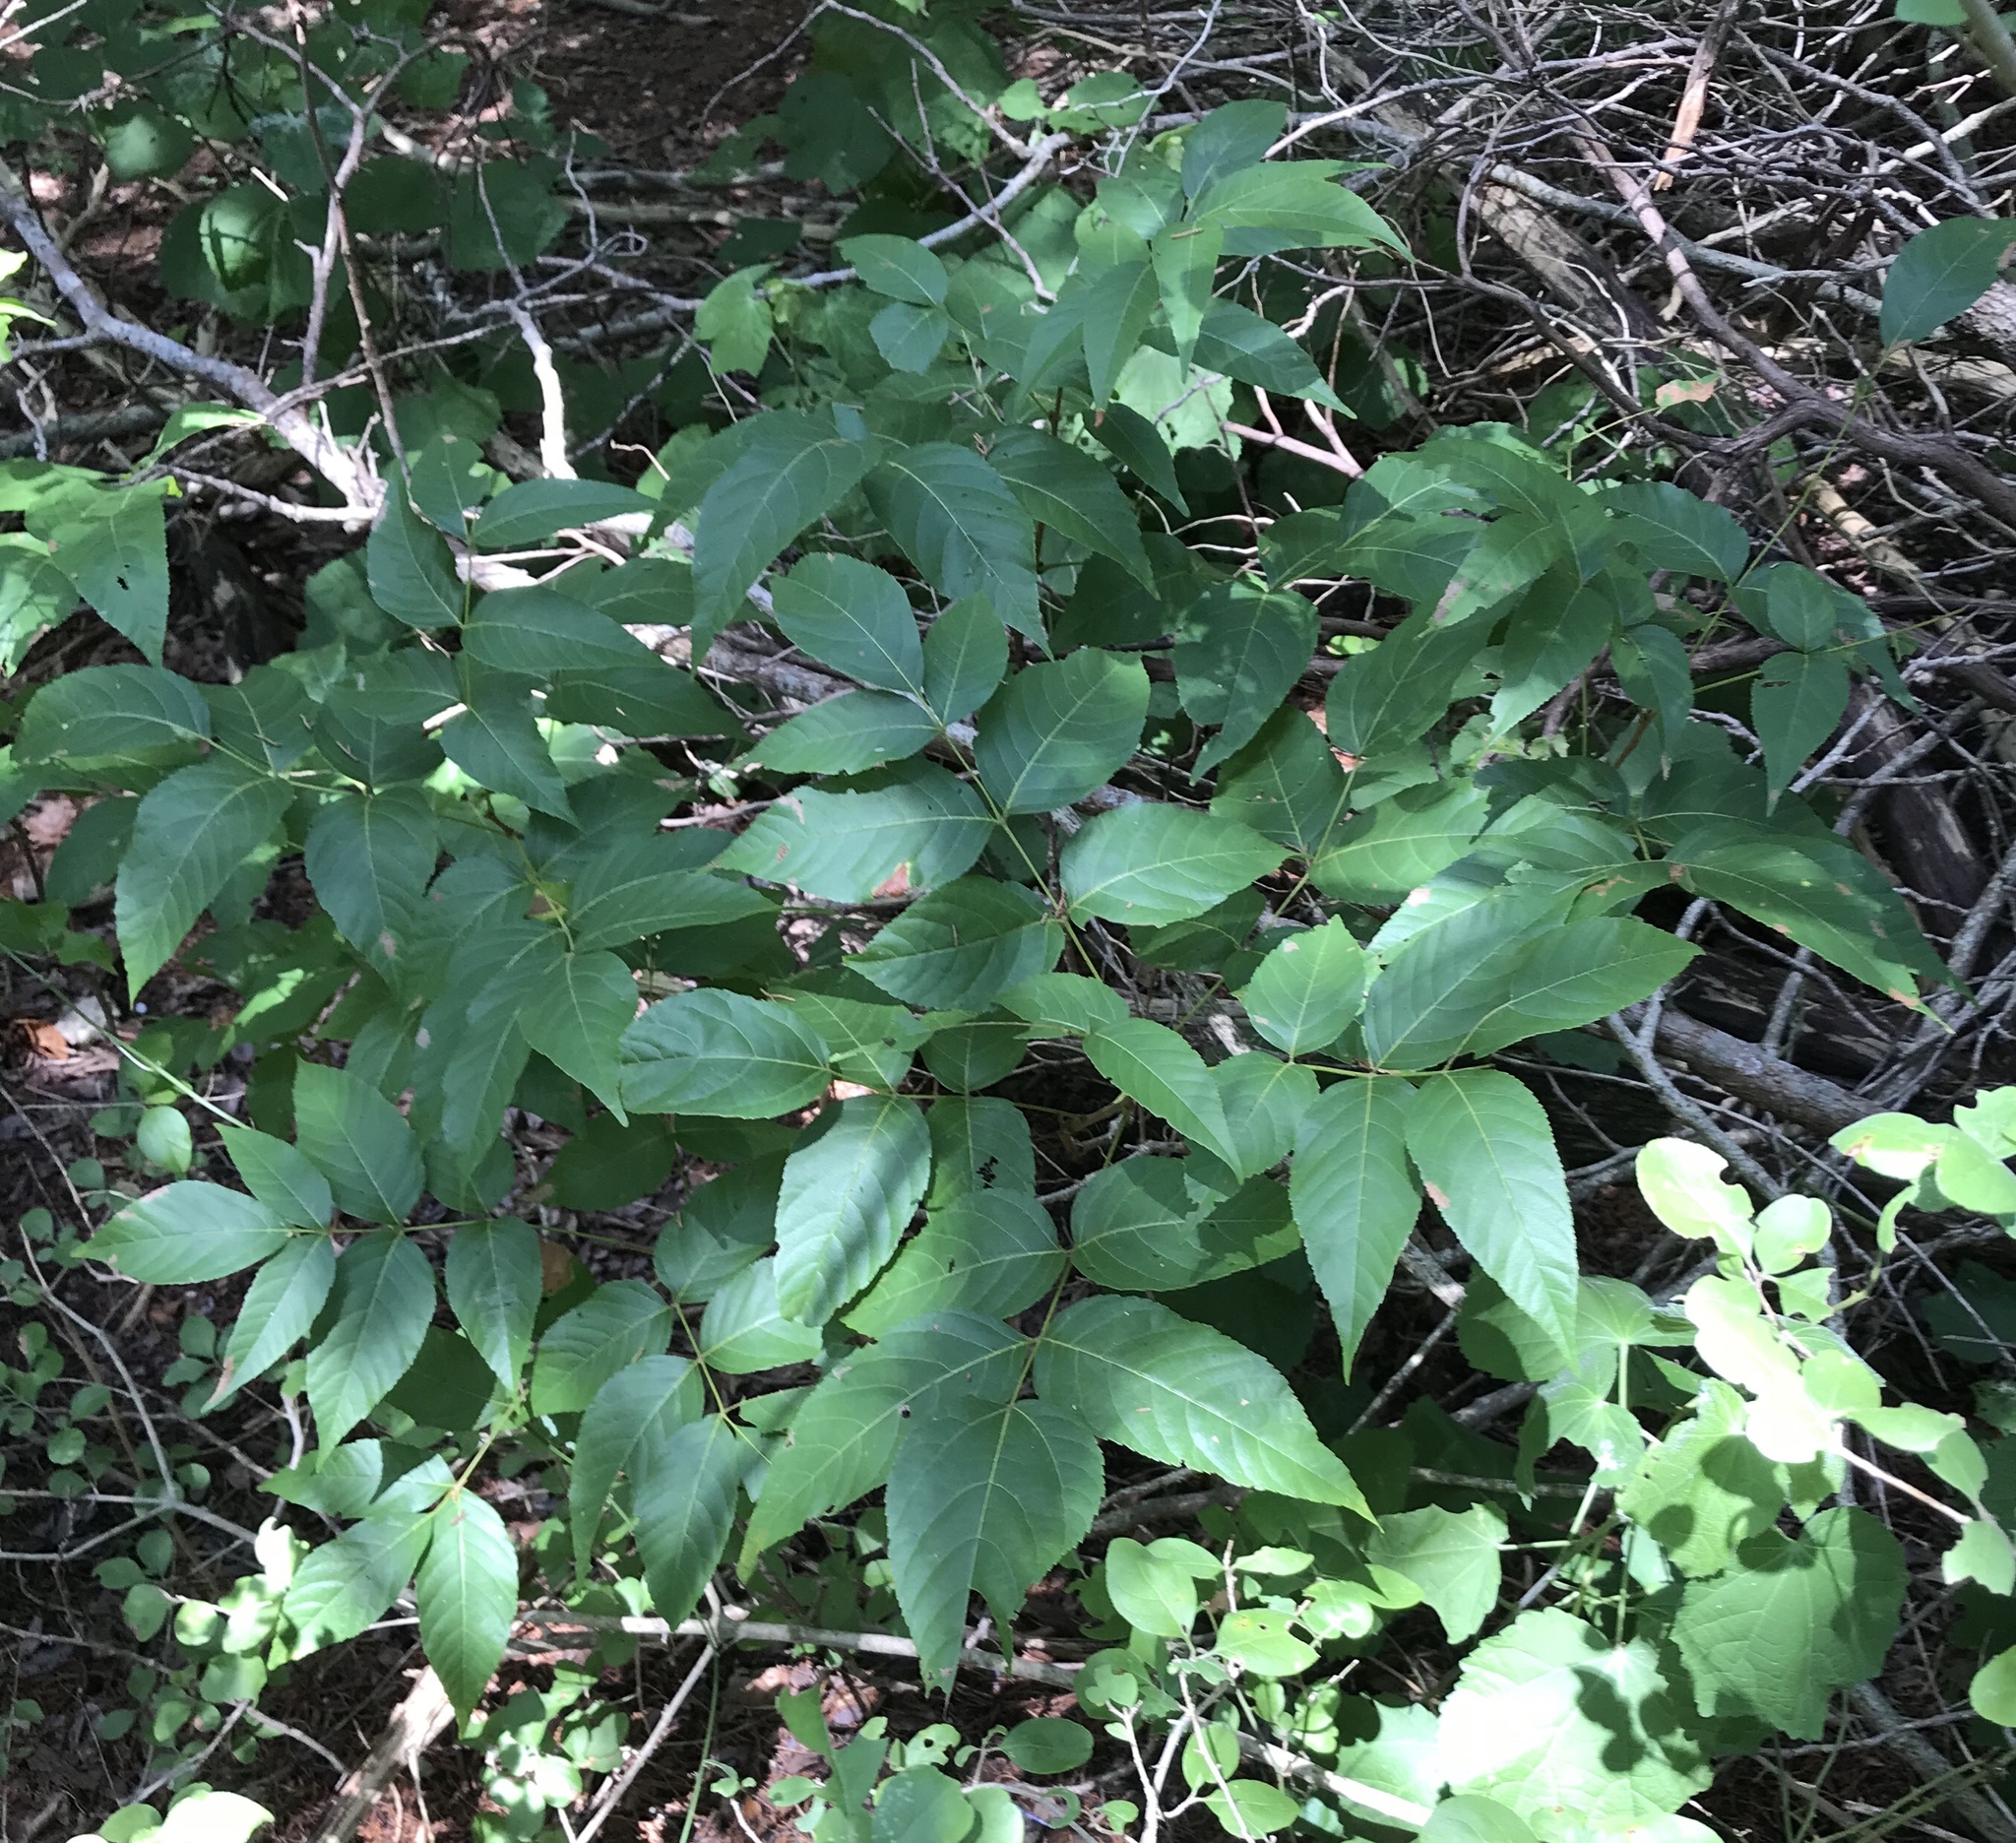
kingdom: Plantae
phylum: Tracheophyta
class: Magnoliopsida
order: Sapindales
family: Sapindaceae
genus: Ungnadia
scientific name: Ungnadia speciosa
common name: Texas-buckeye
